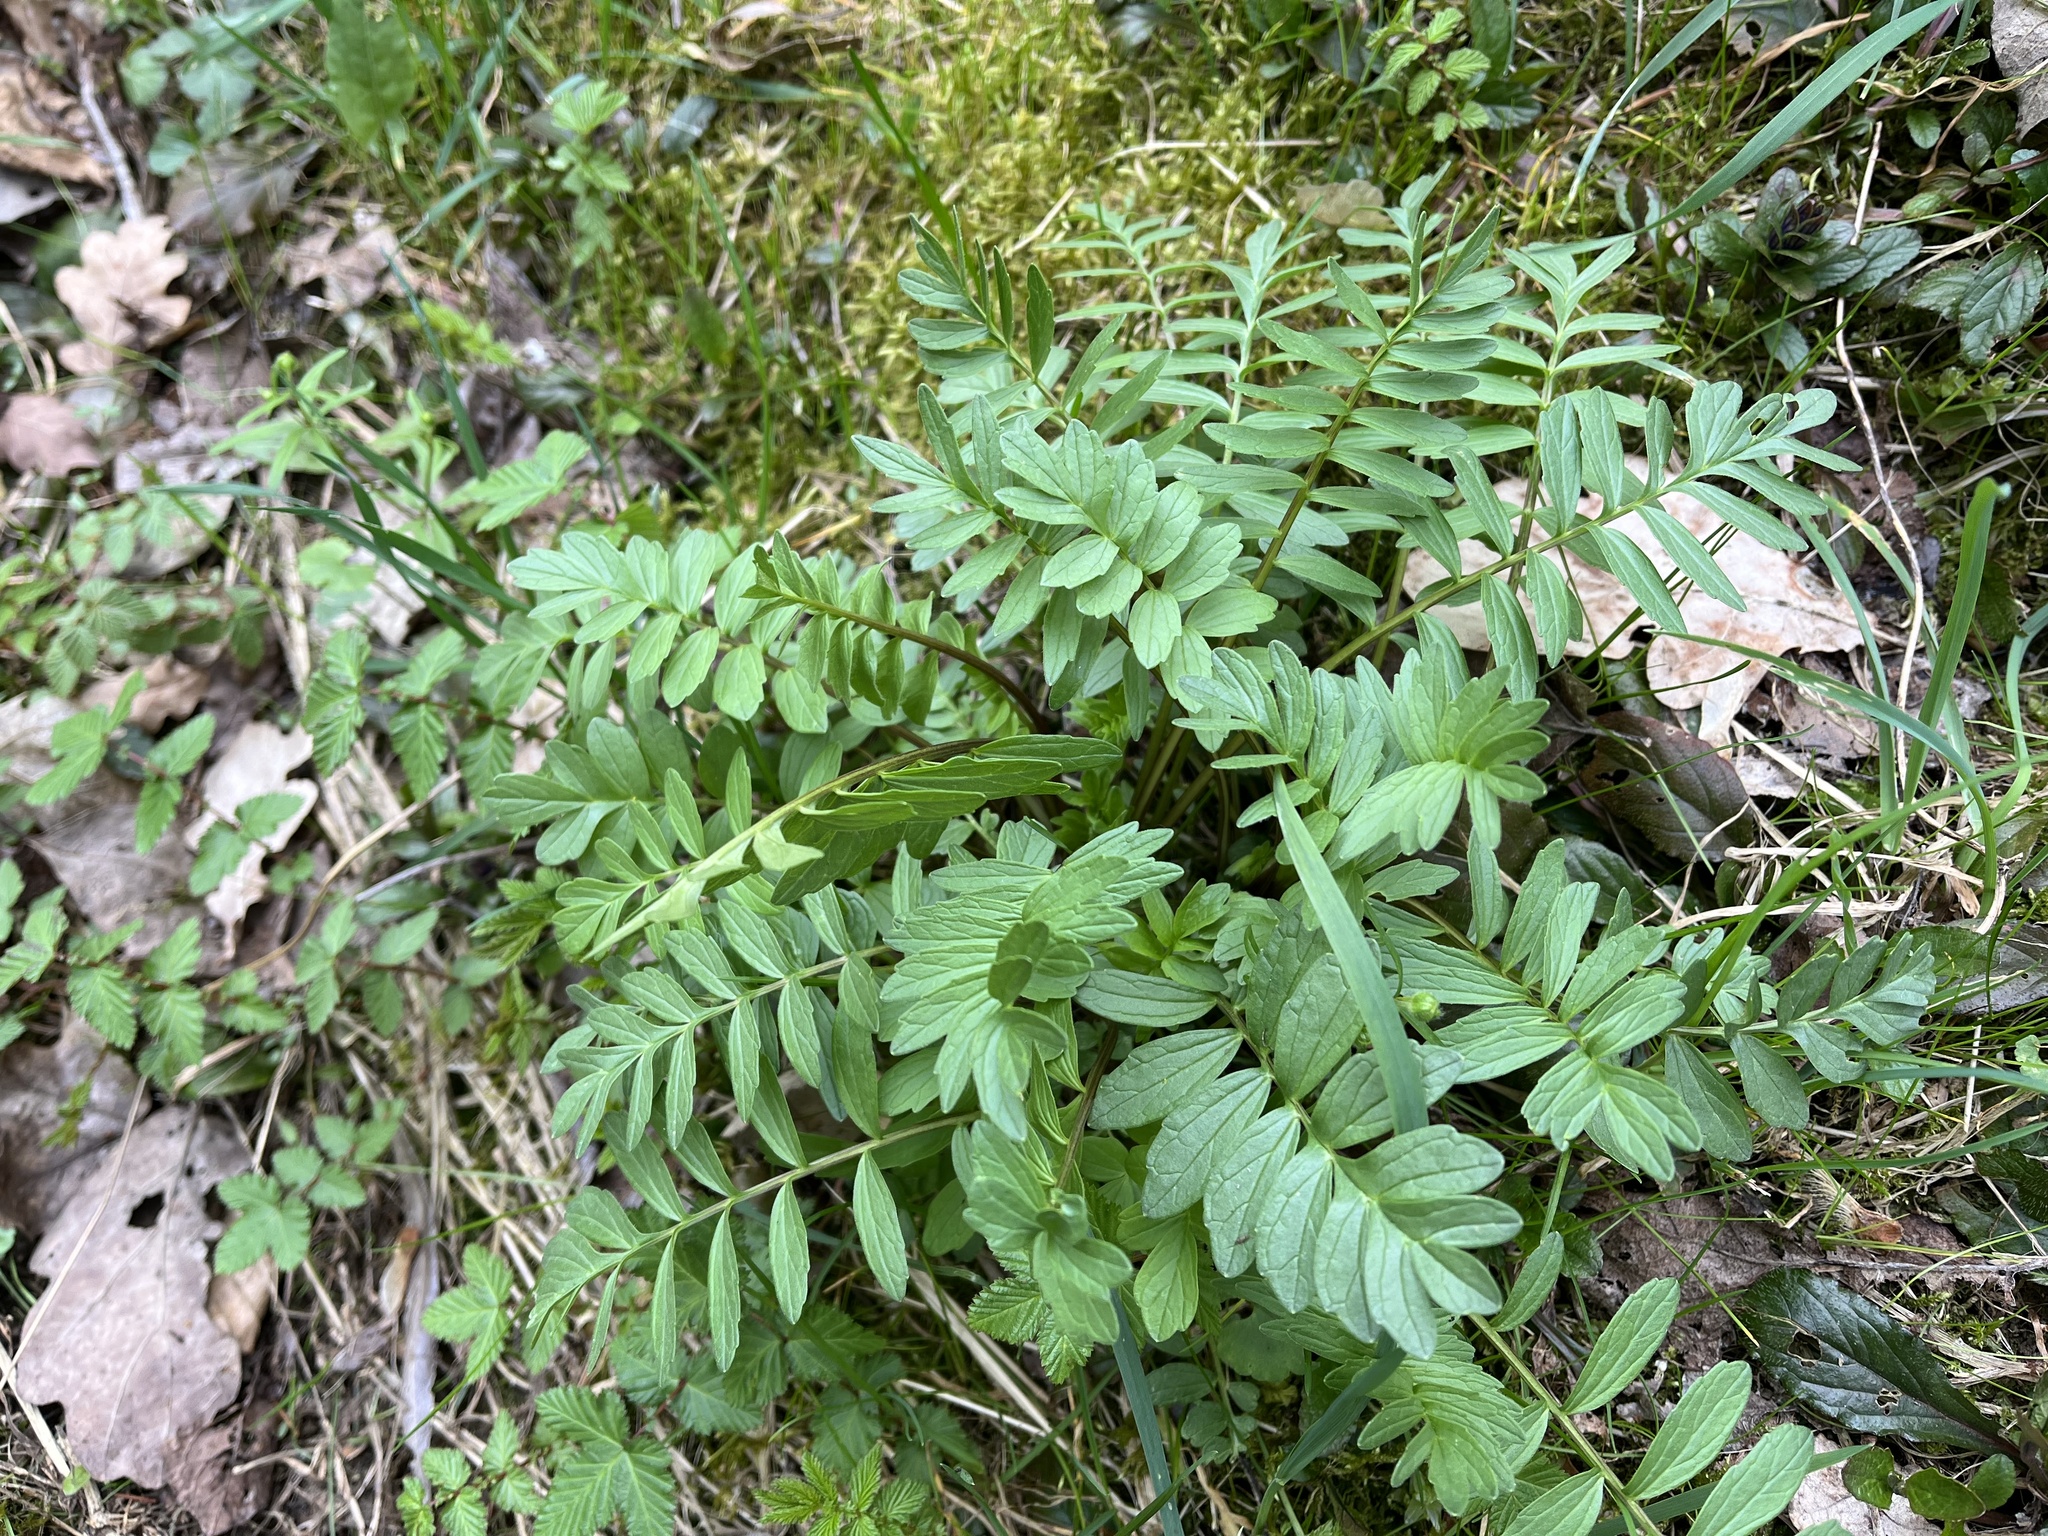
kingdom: Plantae
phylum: Tracheophyta
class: Magnoliopsida
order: Dipsacales
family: Caprifoliaceae
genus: Valeriana
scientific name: Valeriana officinalis
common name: Common valerian
